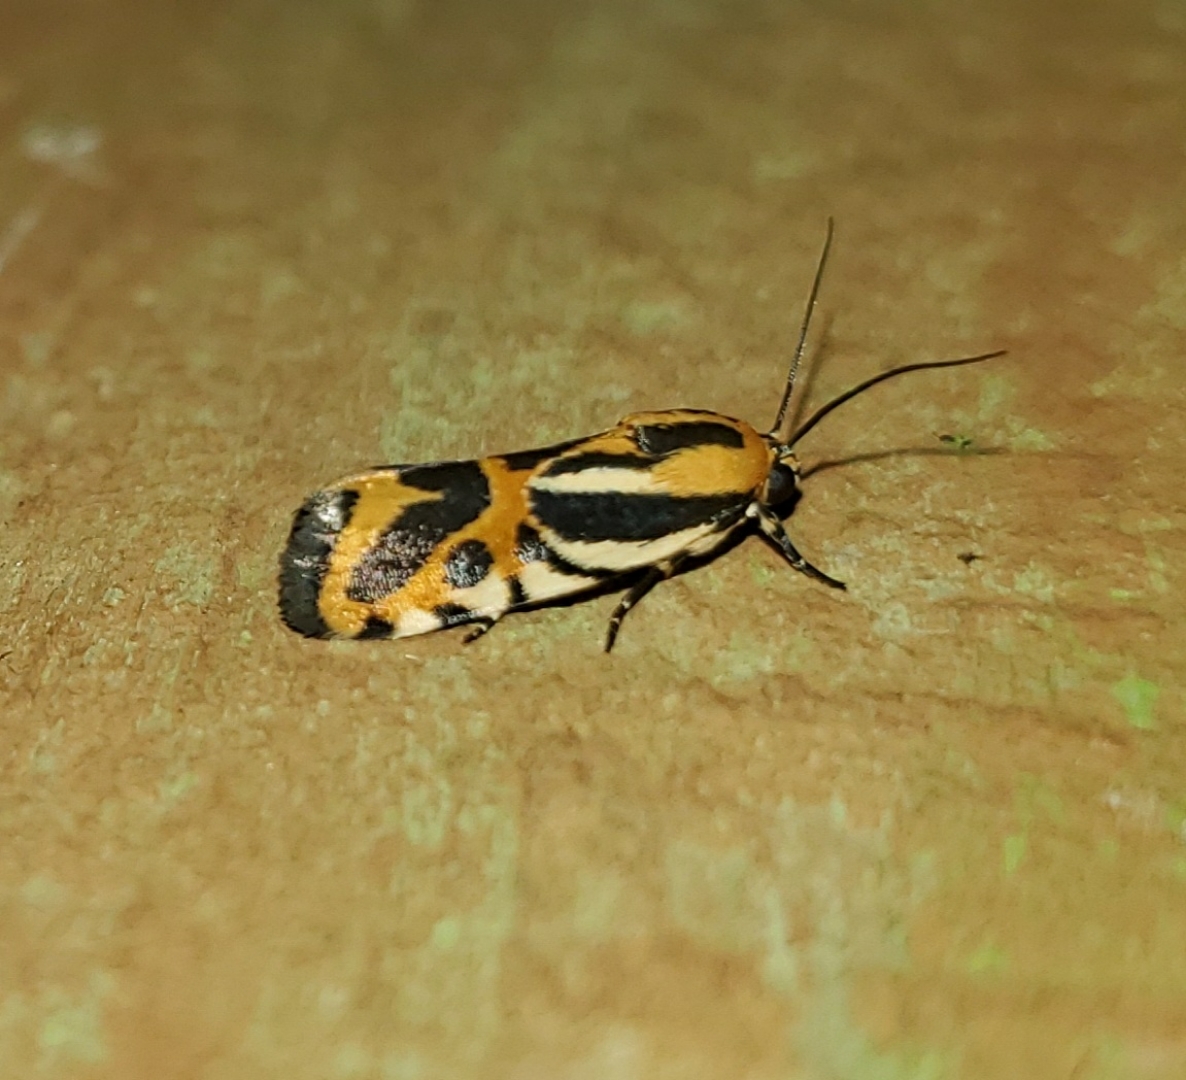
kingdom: Animalia
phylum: Arthropoda
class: Insecta
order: Lepidoptera
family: Noctuidae
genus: Acontia
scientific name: Acontia onagrus
